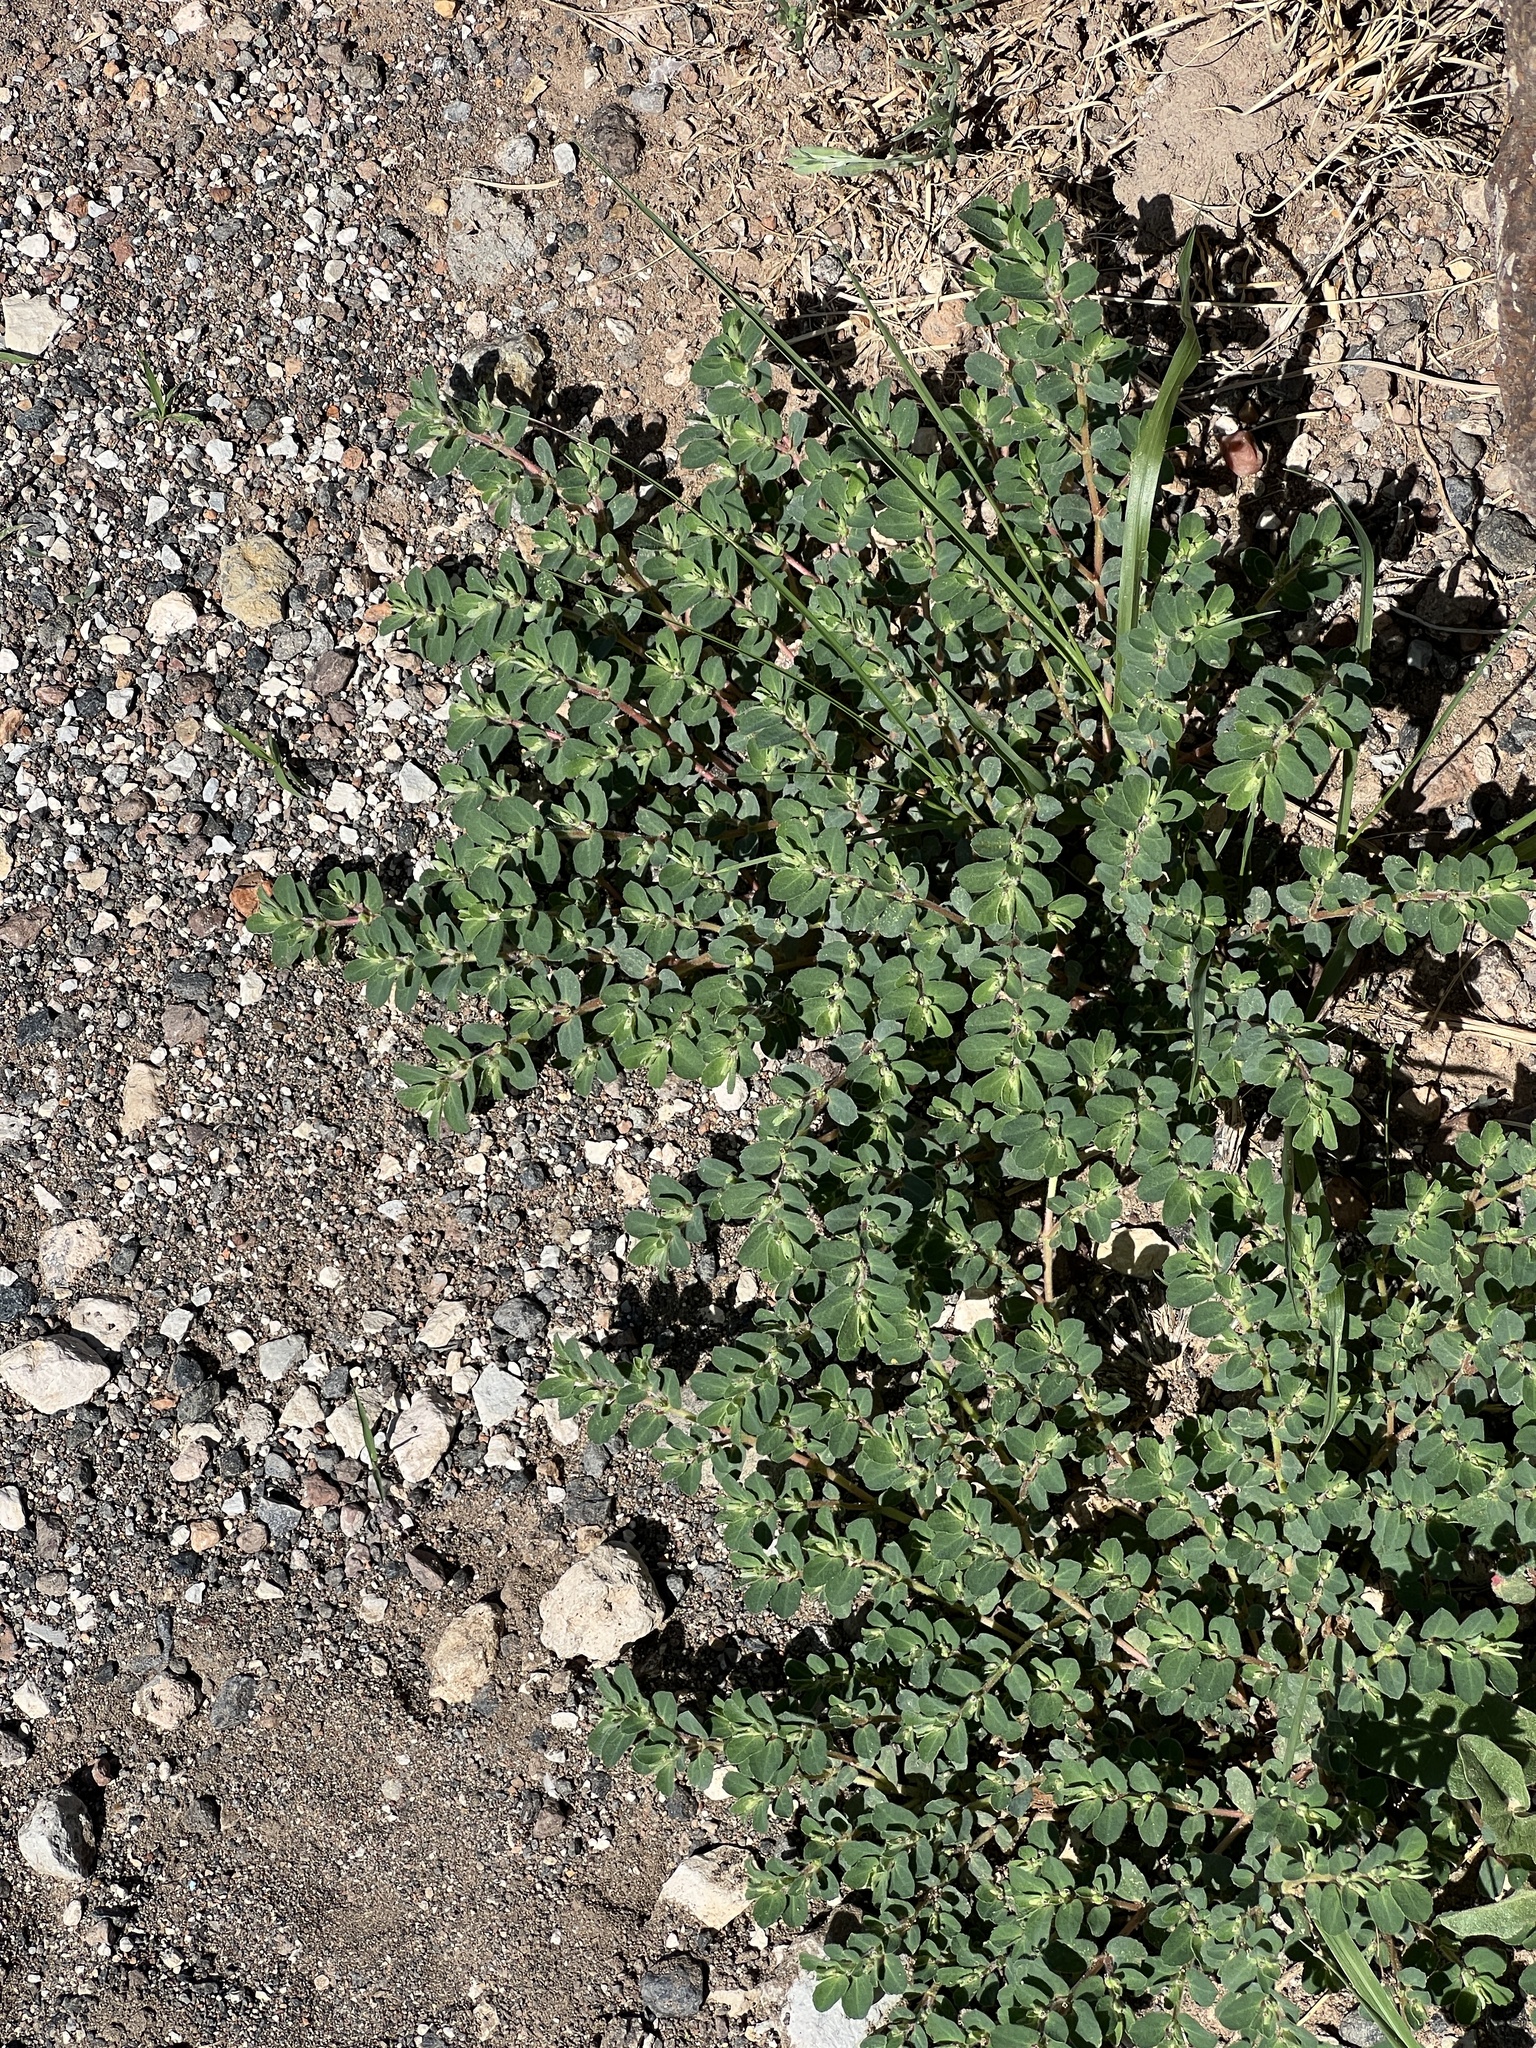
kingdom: Plantae
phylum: Tracheophyta
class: Magnoliopsida
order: Malpighiales
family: Euphorbiaceae
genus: Euphorbia
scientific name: Euphorbia stictospora
